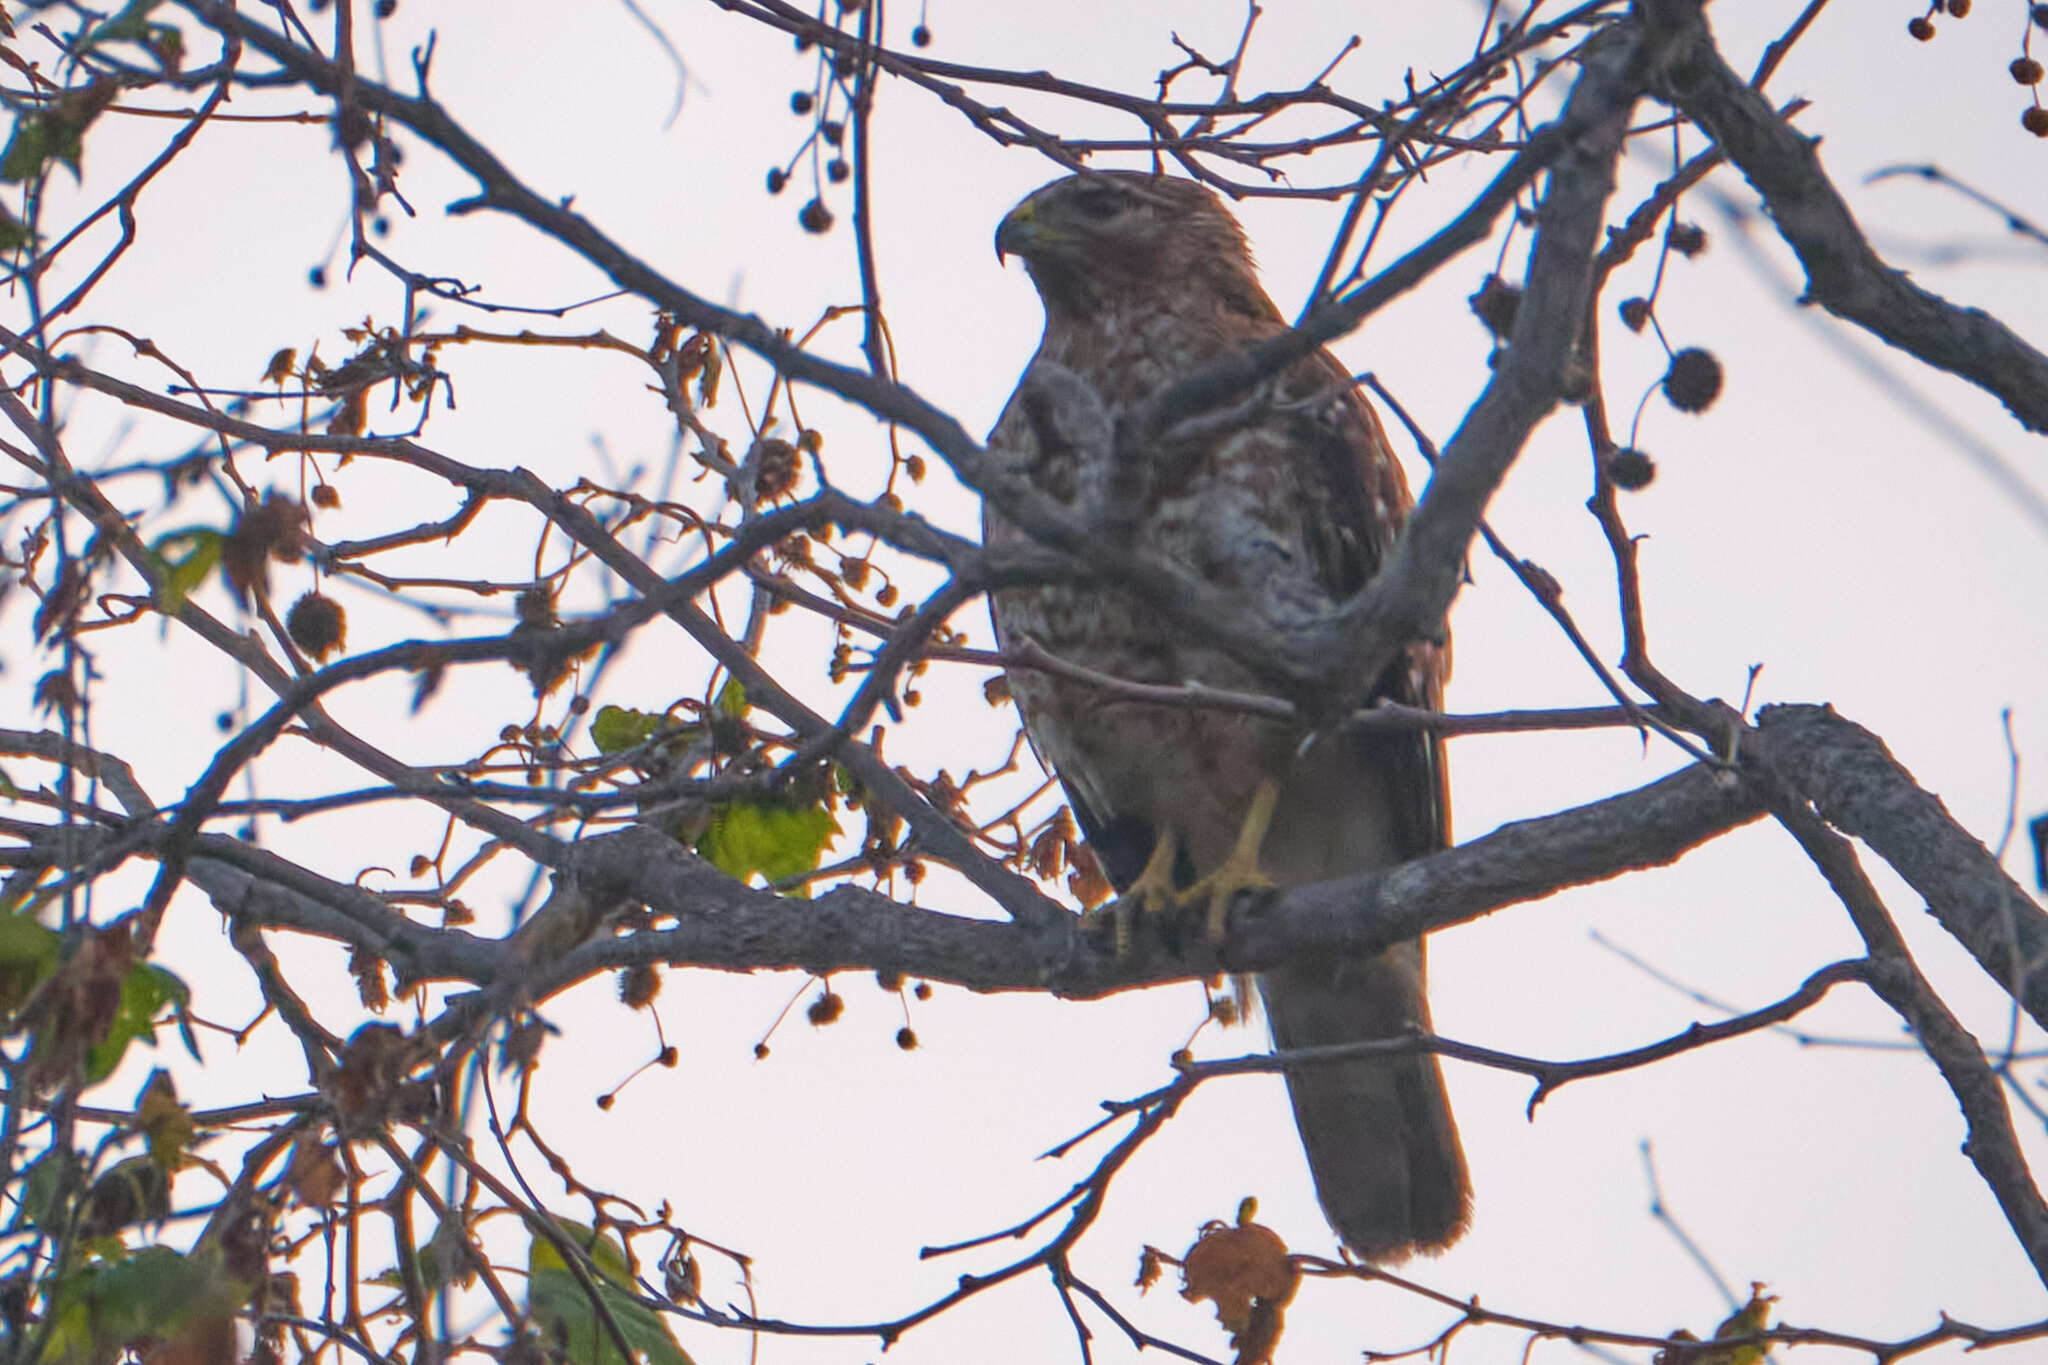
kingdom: Animalia
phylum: Chordata
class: Aves
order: Accipitriformes
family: Accipitridae
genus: Buteo
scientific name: Buteo lineatus
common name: Red-shouldered hawk
